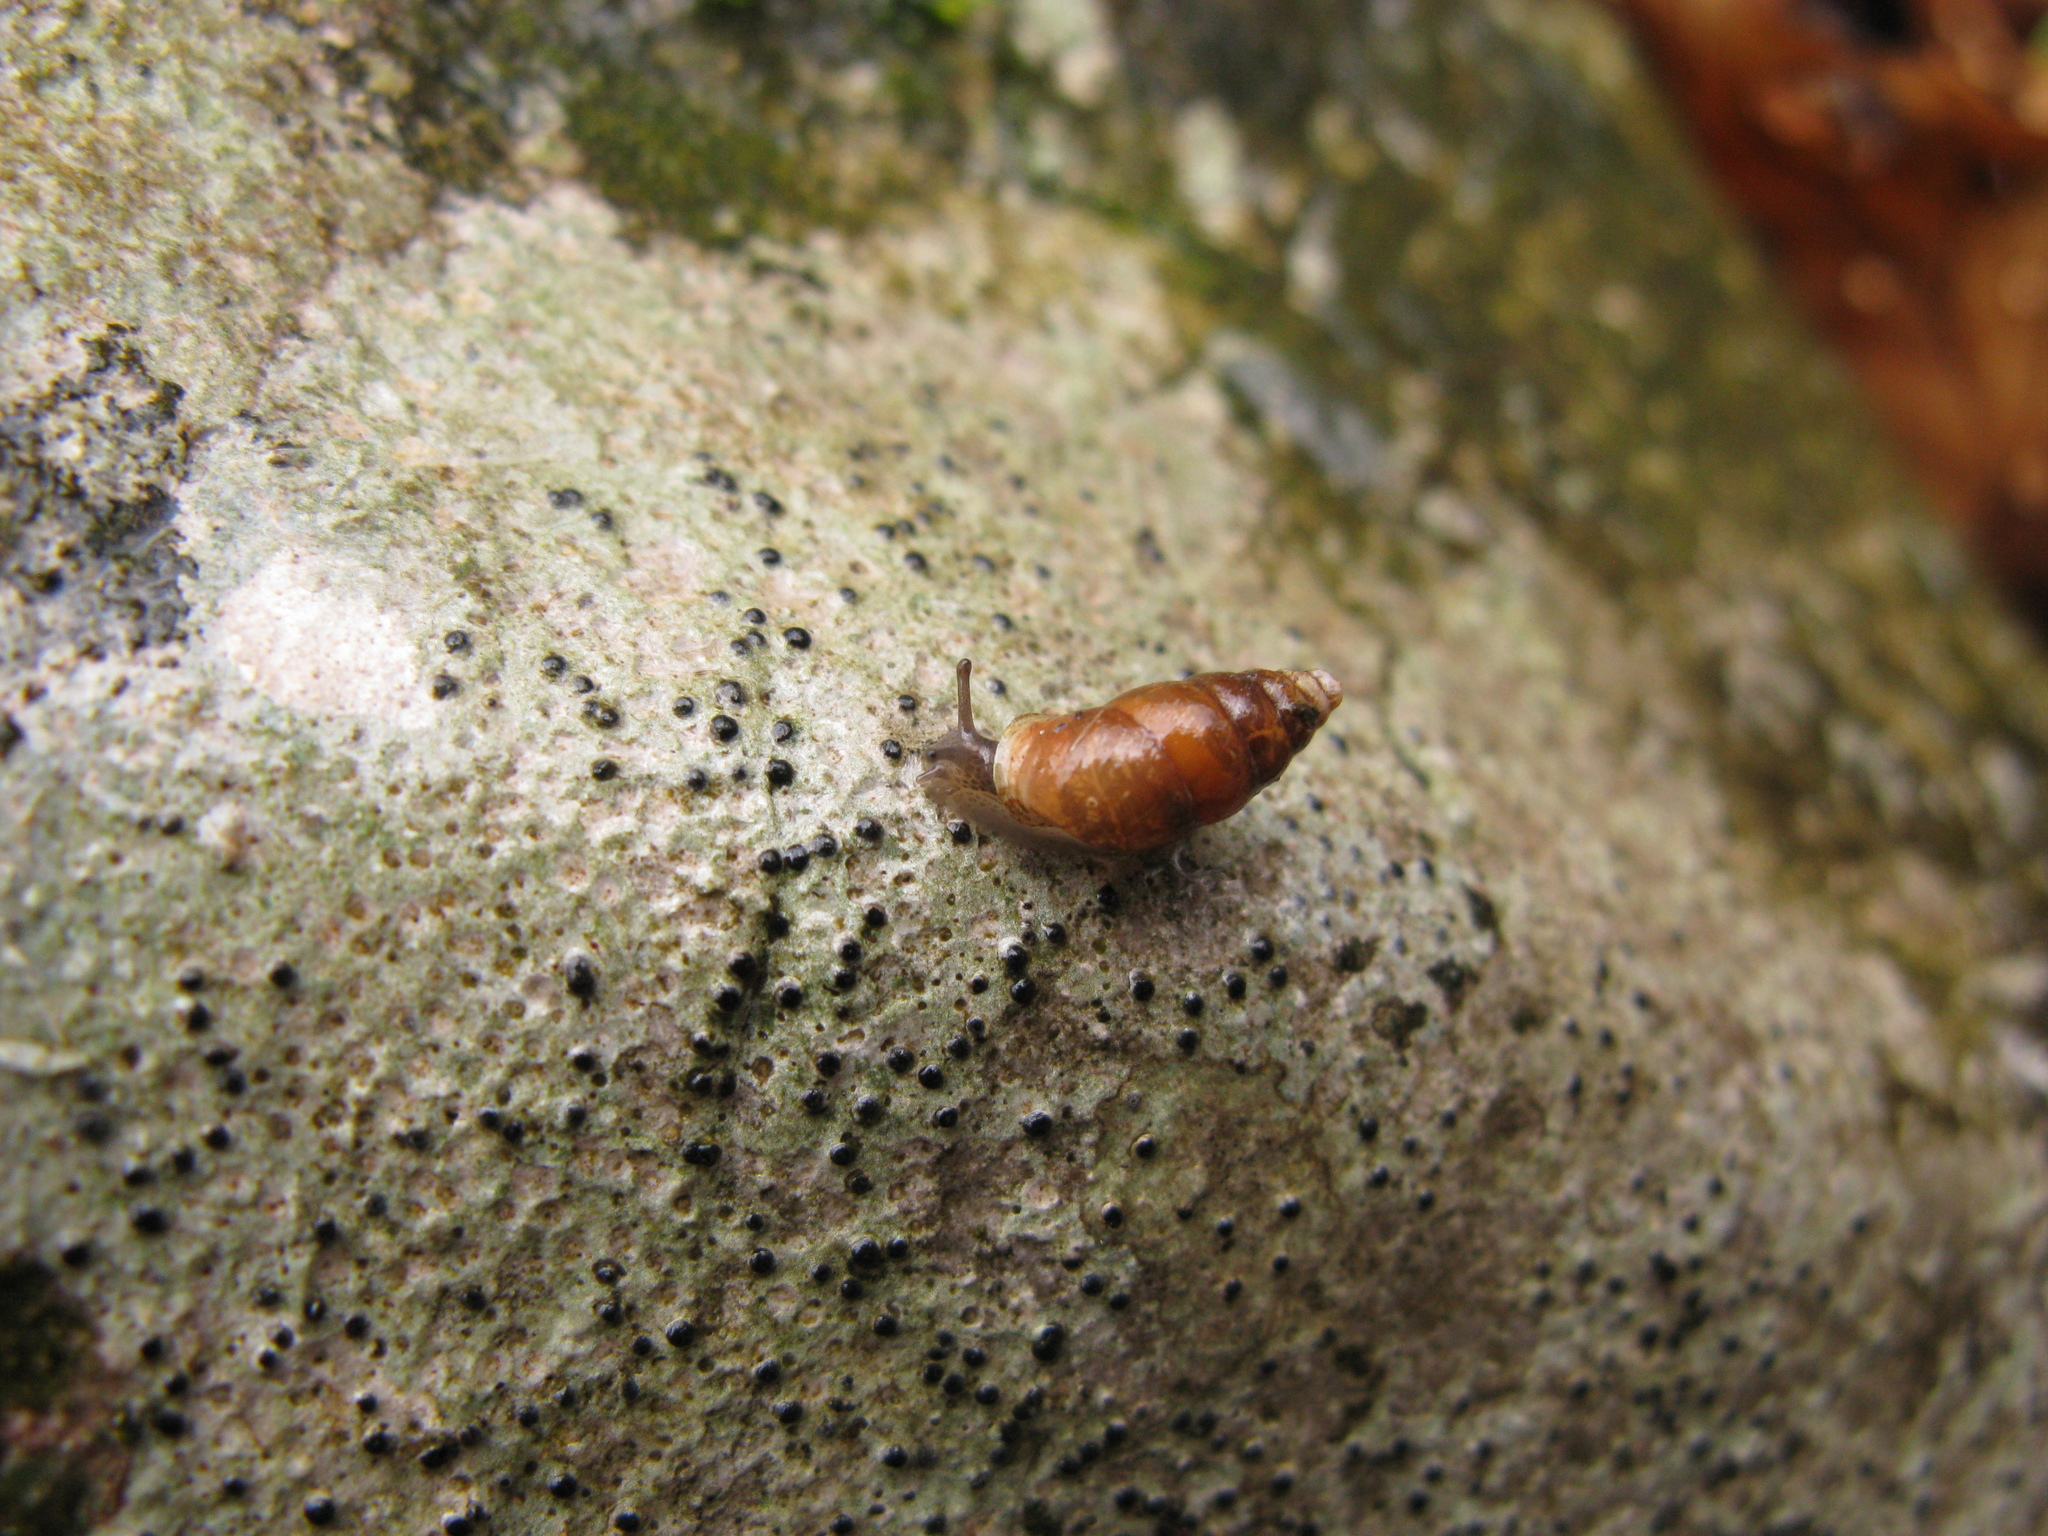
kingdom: Animalia
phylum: Mollusca
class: Gastropoda
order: Stylommatophora
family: Enidae
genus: Merdigera
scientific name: Merdigera obscura
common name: Lesser bulin
